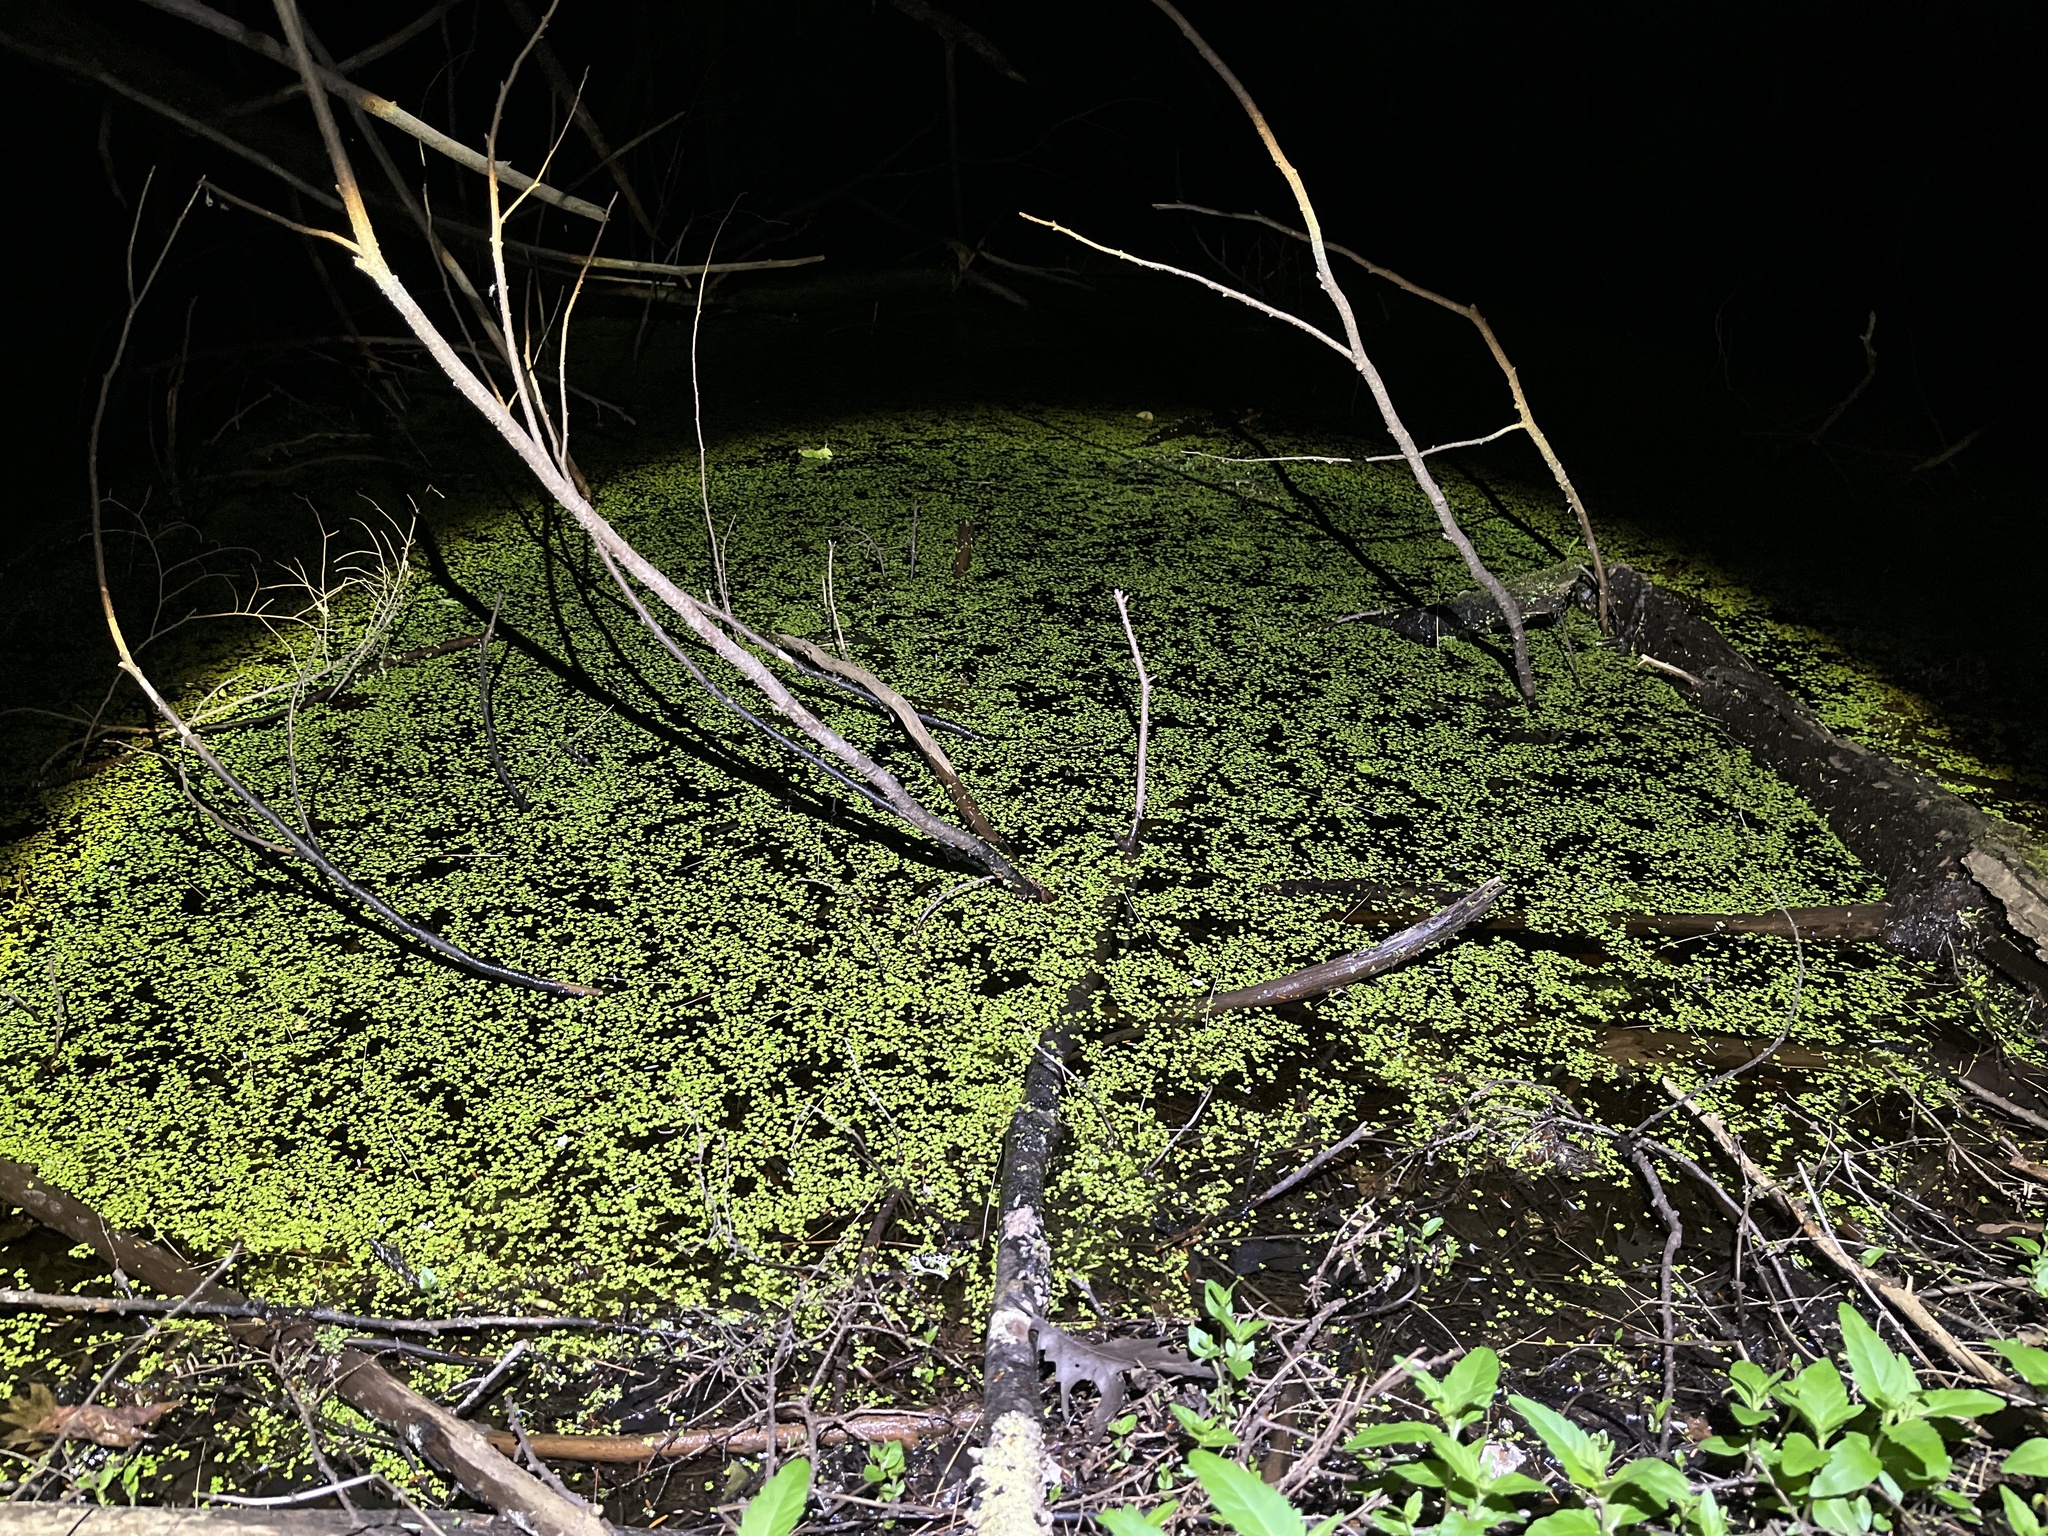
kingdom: Animalia
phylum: Chordata
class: Amphibia
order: Anura
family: Ranidae
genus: Lithobates
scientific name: Lithobates clamitans
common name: Green frog
